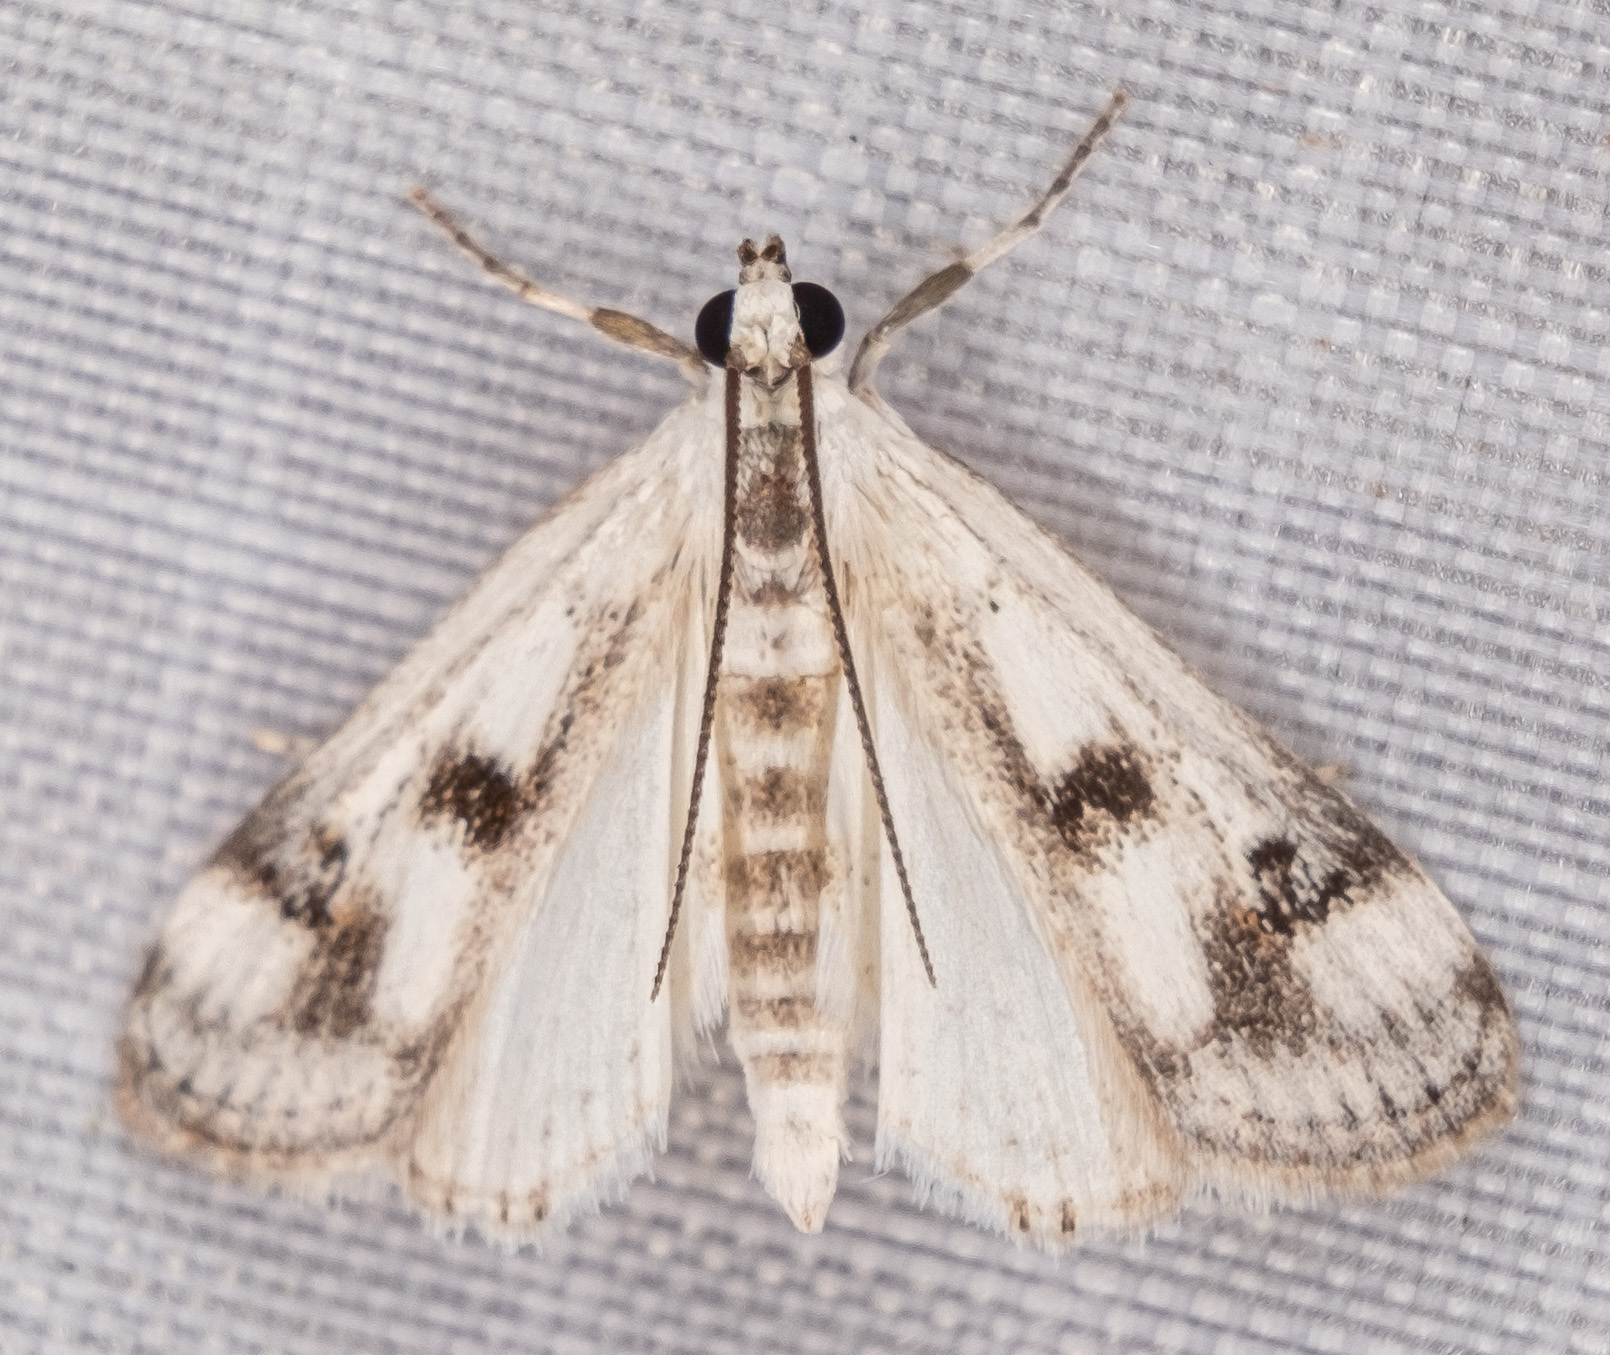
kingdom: Animalia
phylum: Arthropoda
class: Insecta
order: Lepidoptera
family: Crambidae
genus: Parapoynx
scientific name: Parapoynx maculalis
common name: Polymorphic pondweed moth
